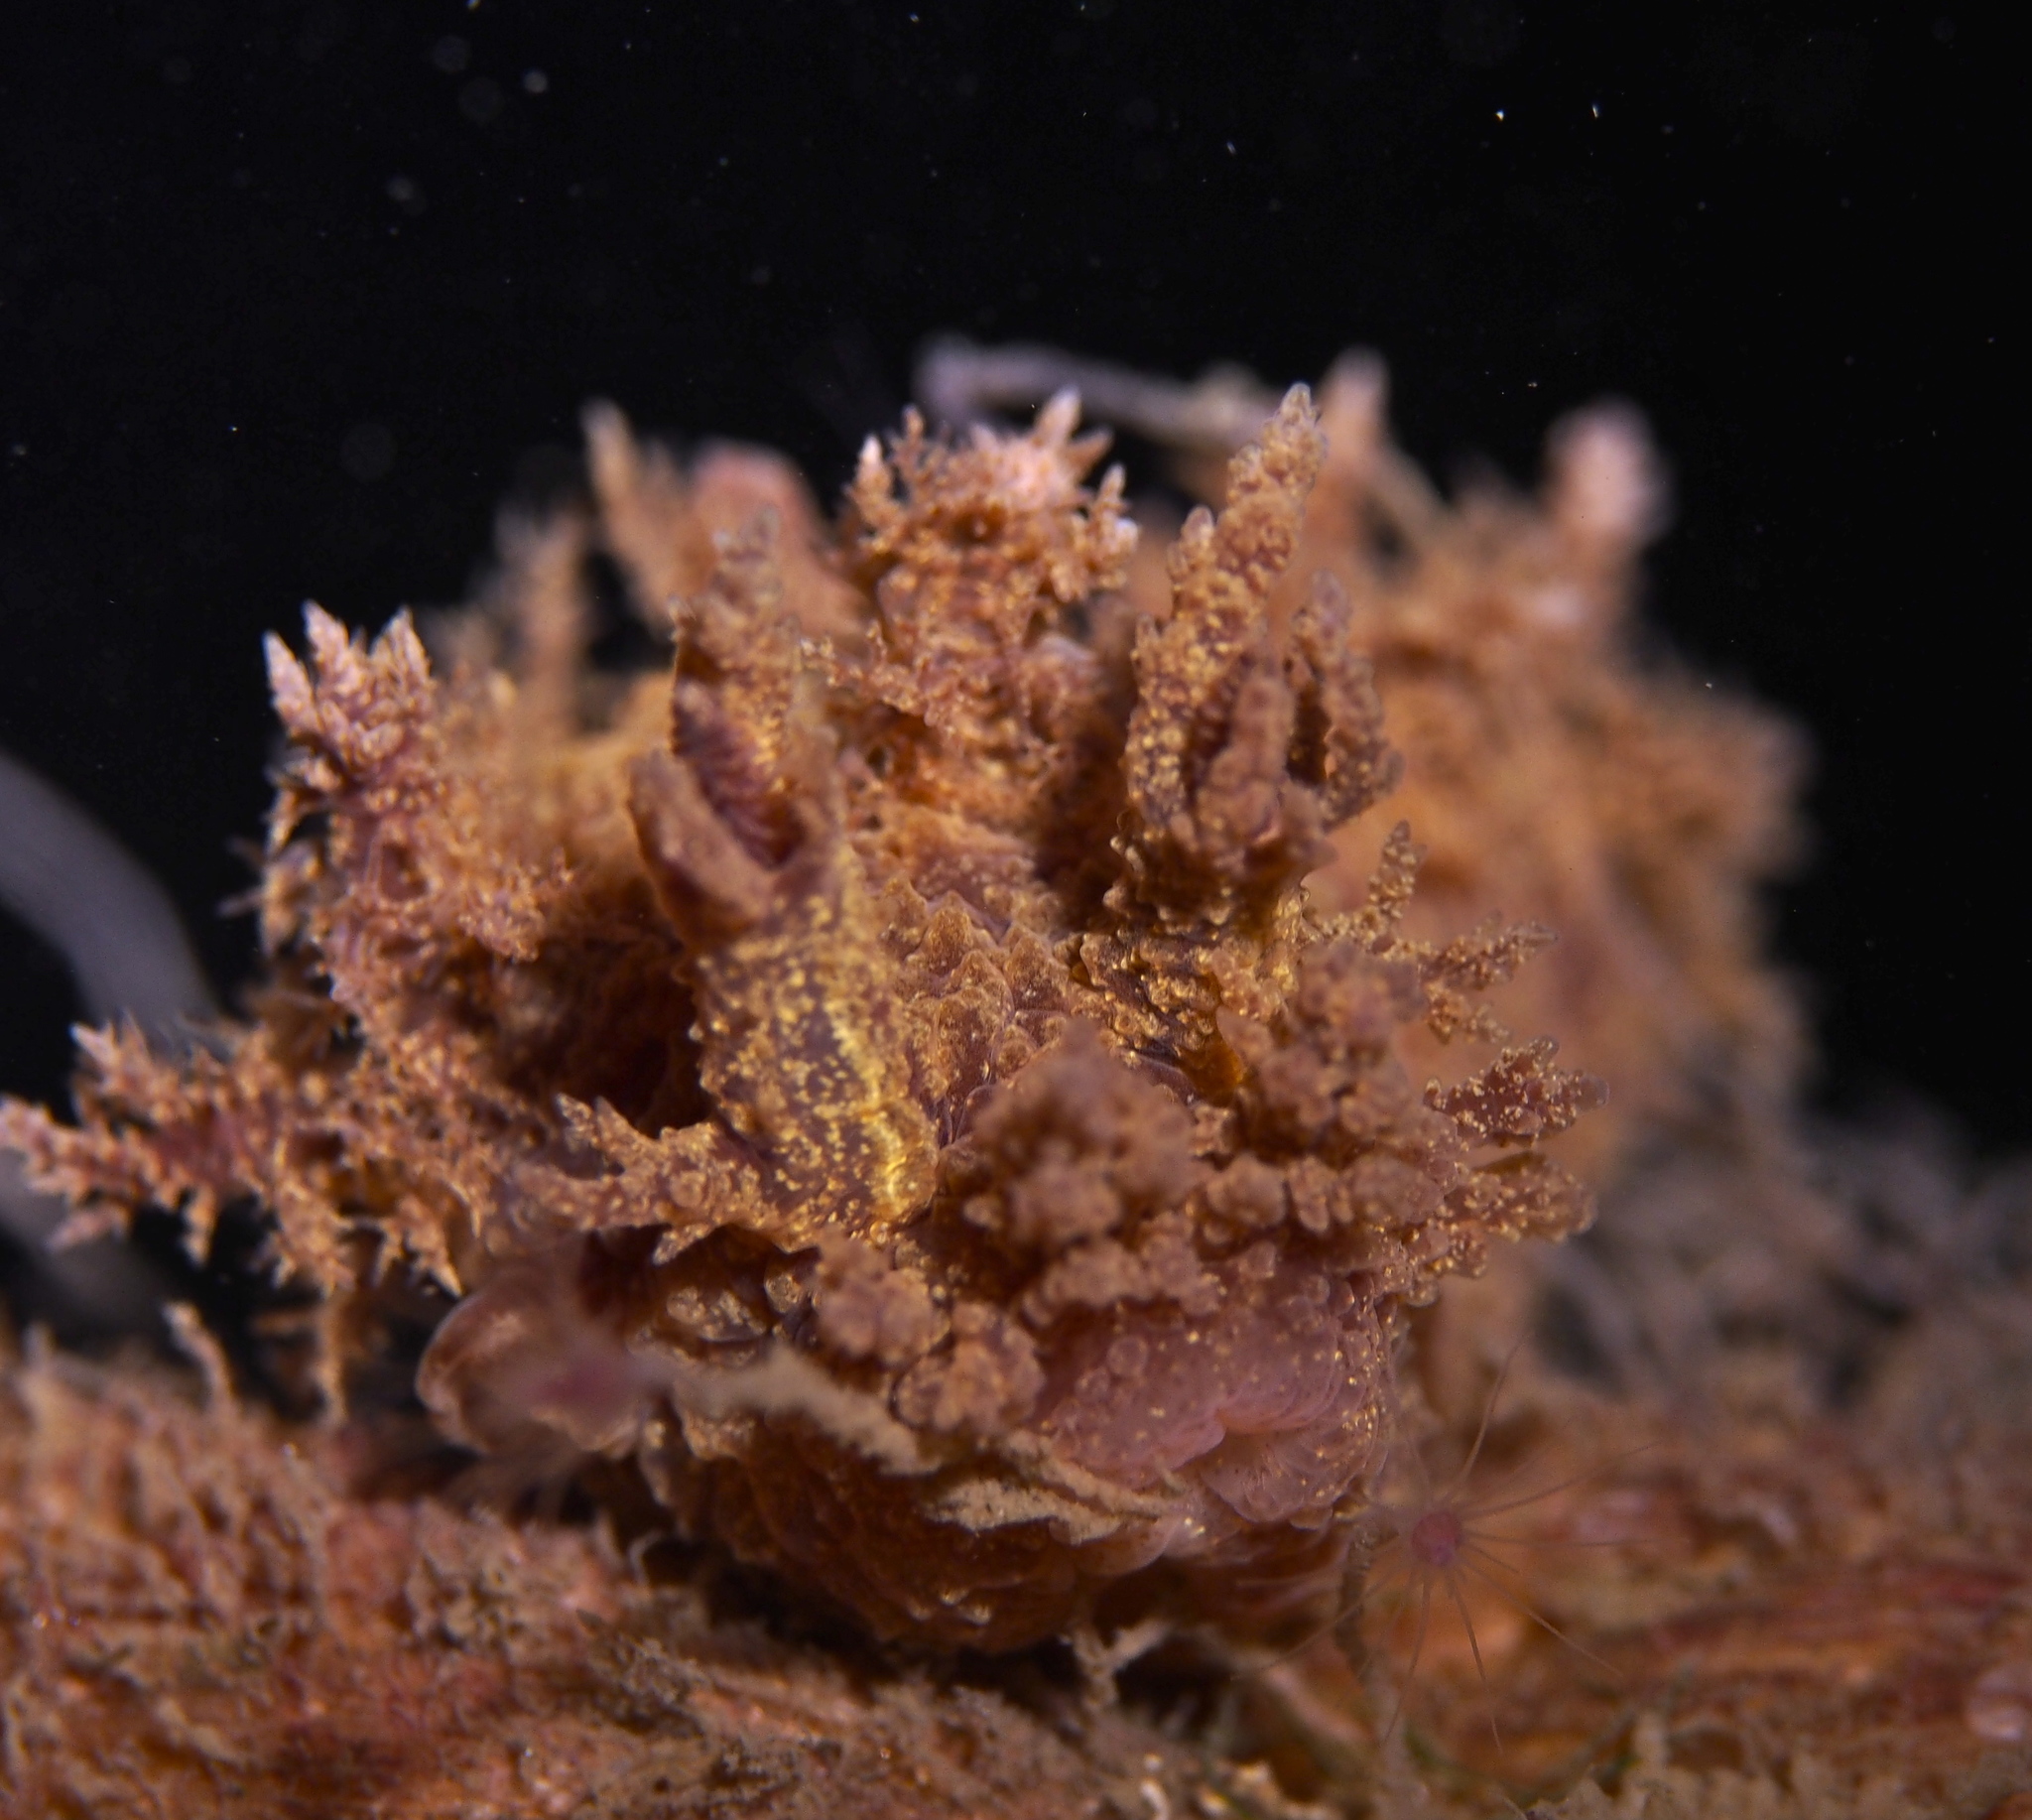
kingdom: Animalia
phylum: Mollusca
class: Gastropoda
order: Nudibranchia
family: Dendronotidae
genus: Dendronotus
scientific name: Dendronotus europaeus
